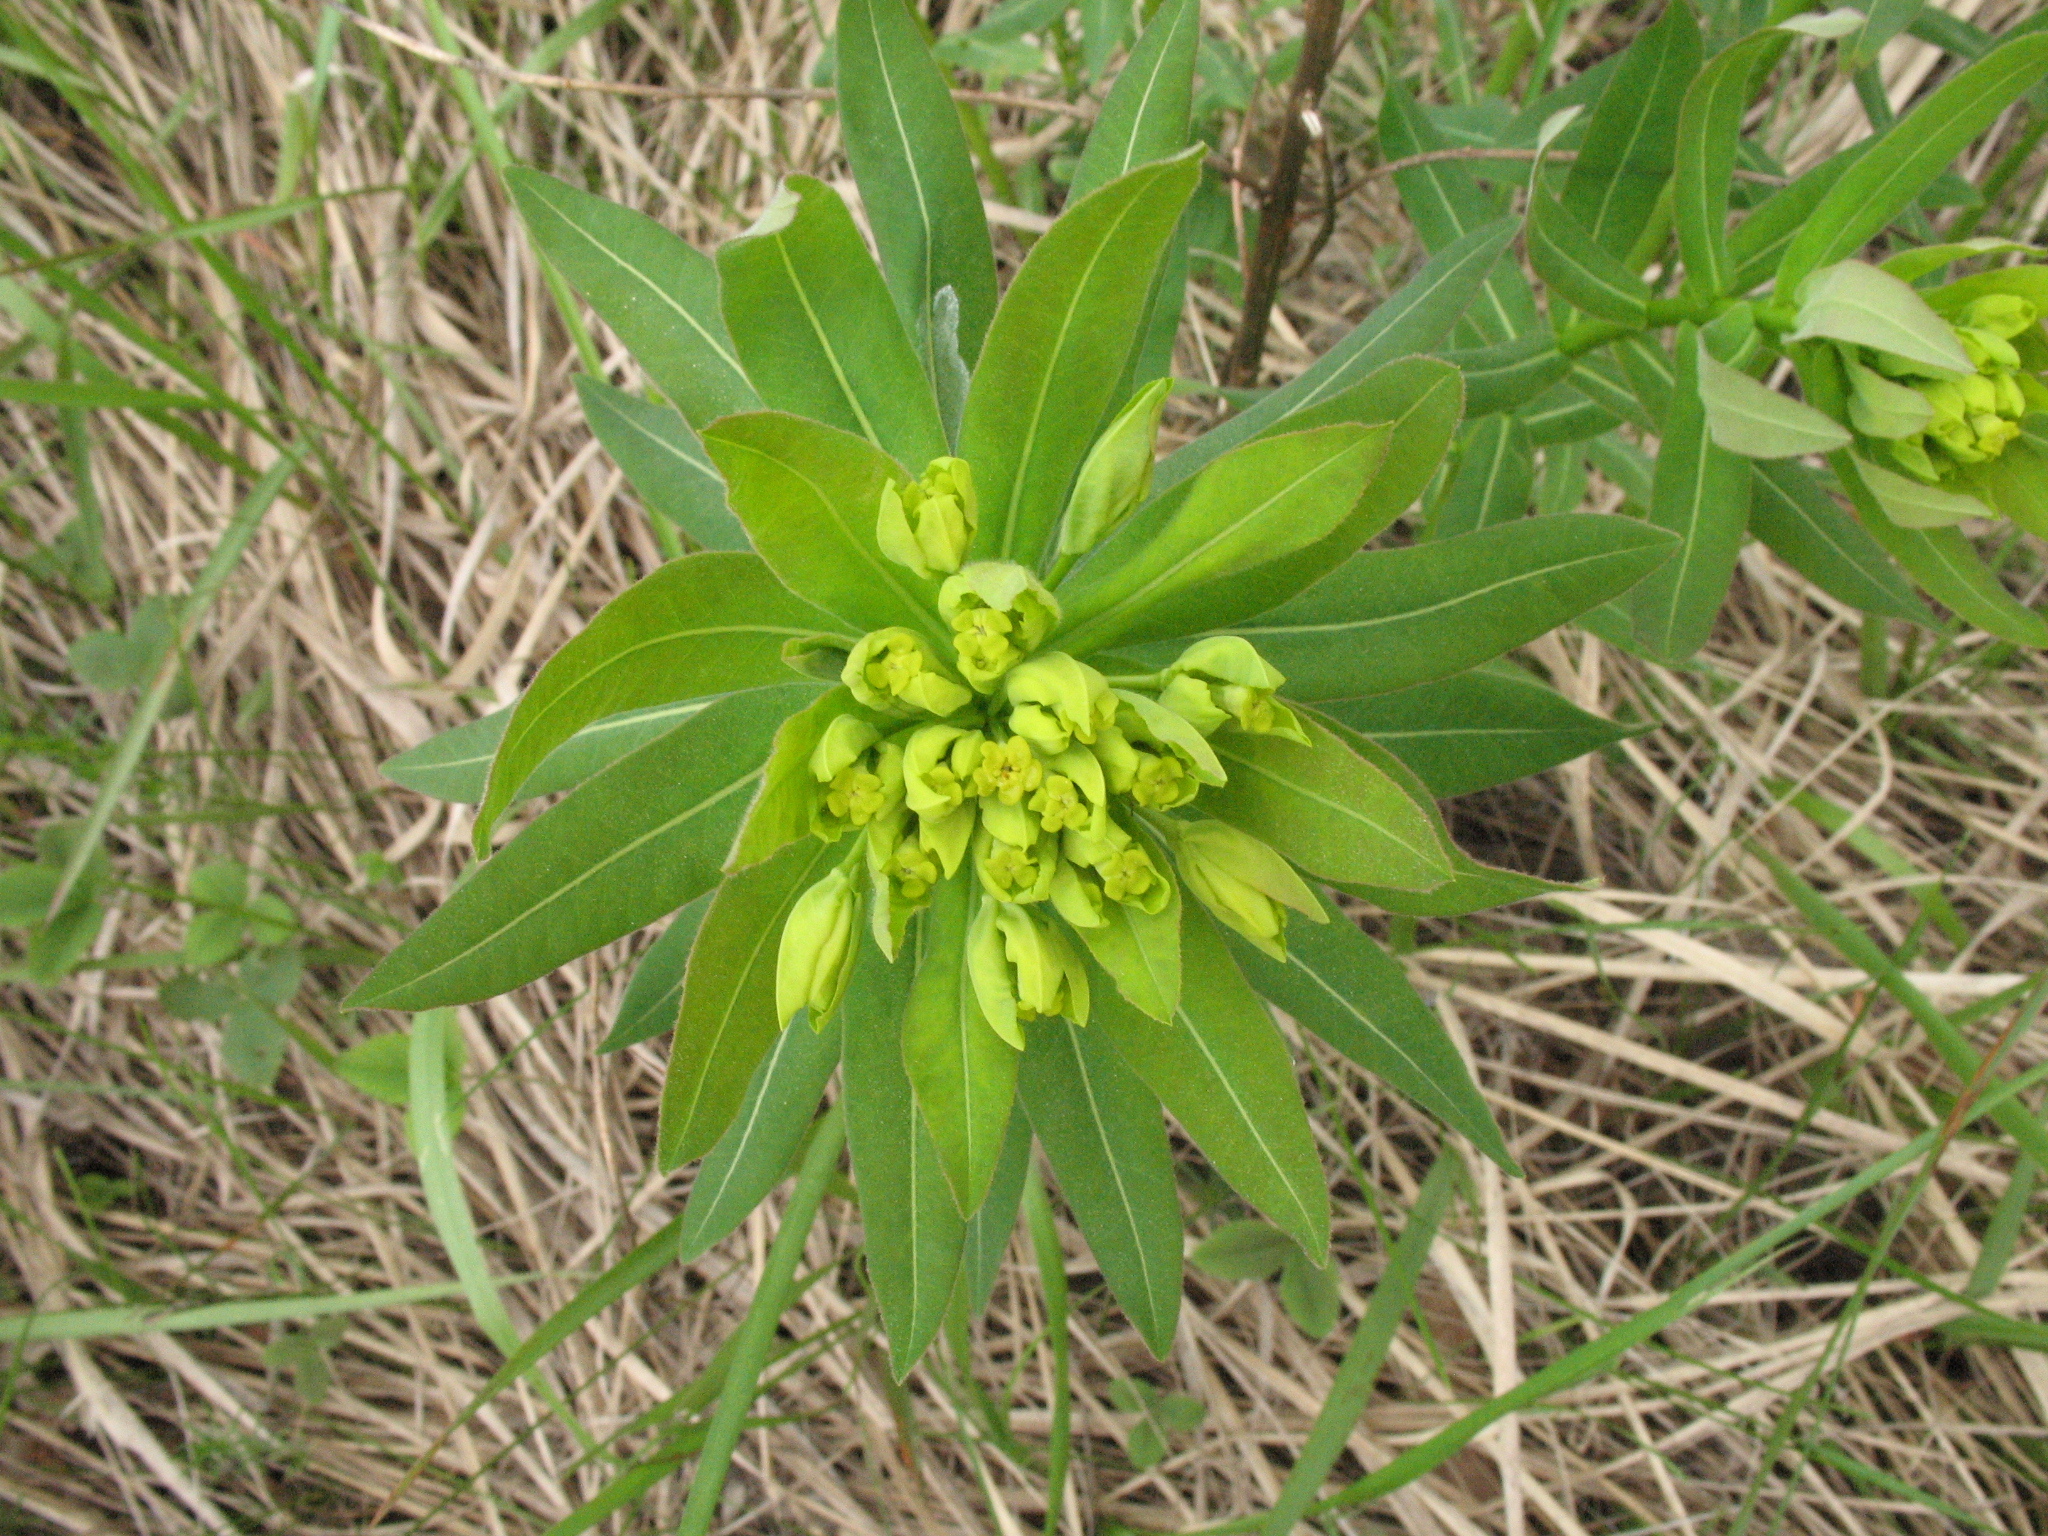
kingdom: Plantae
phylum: Tracheophyta
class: Magnoliopsida
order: Malpighiales
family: Euphorbiaceae
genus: Euphorbia
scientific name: Euphorbia semivillosa
